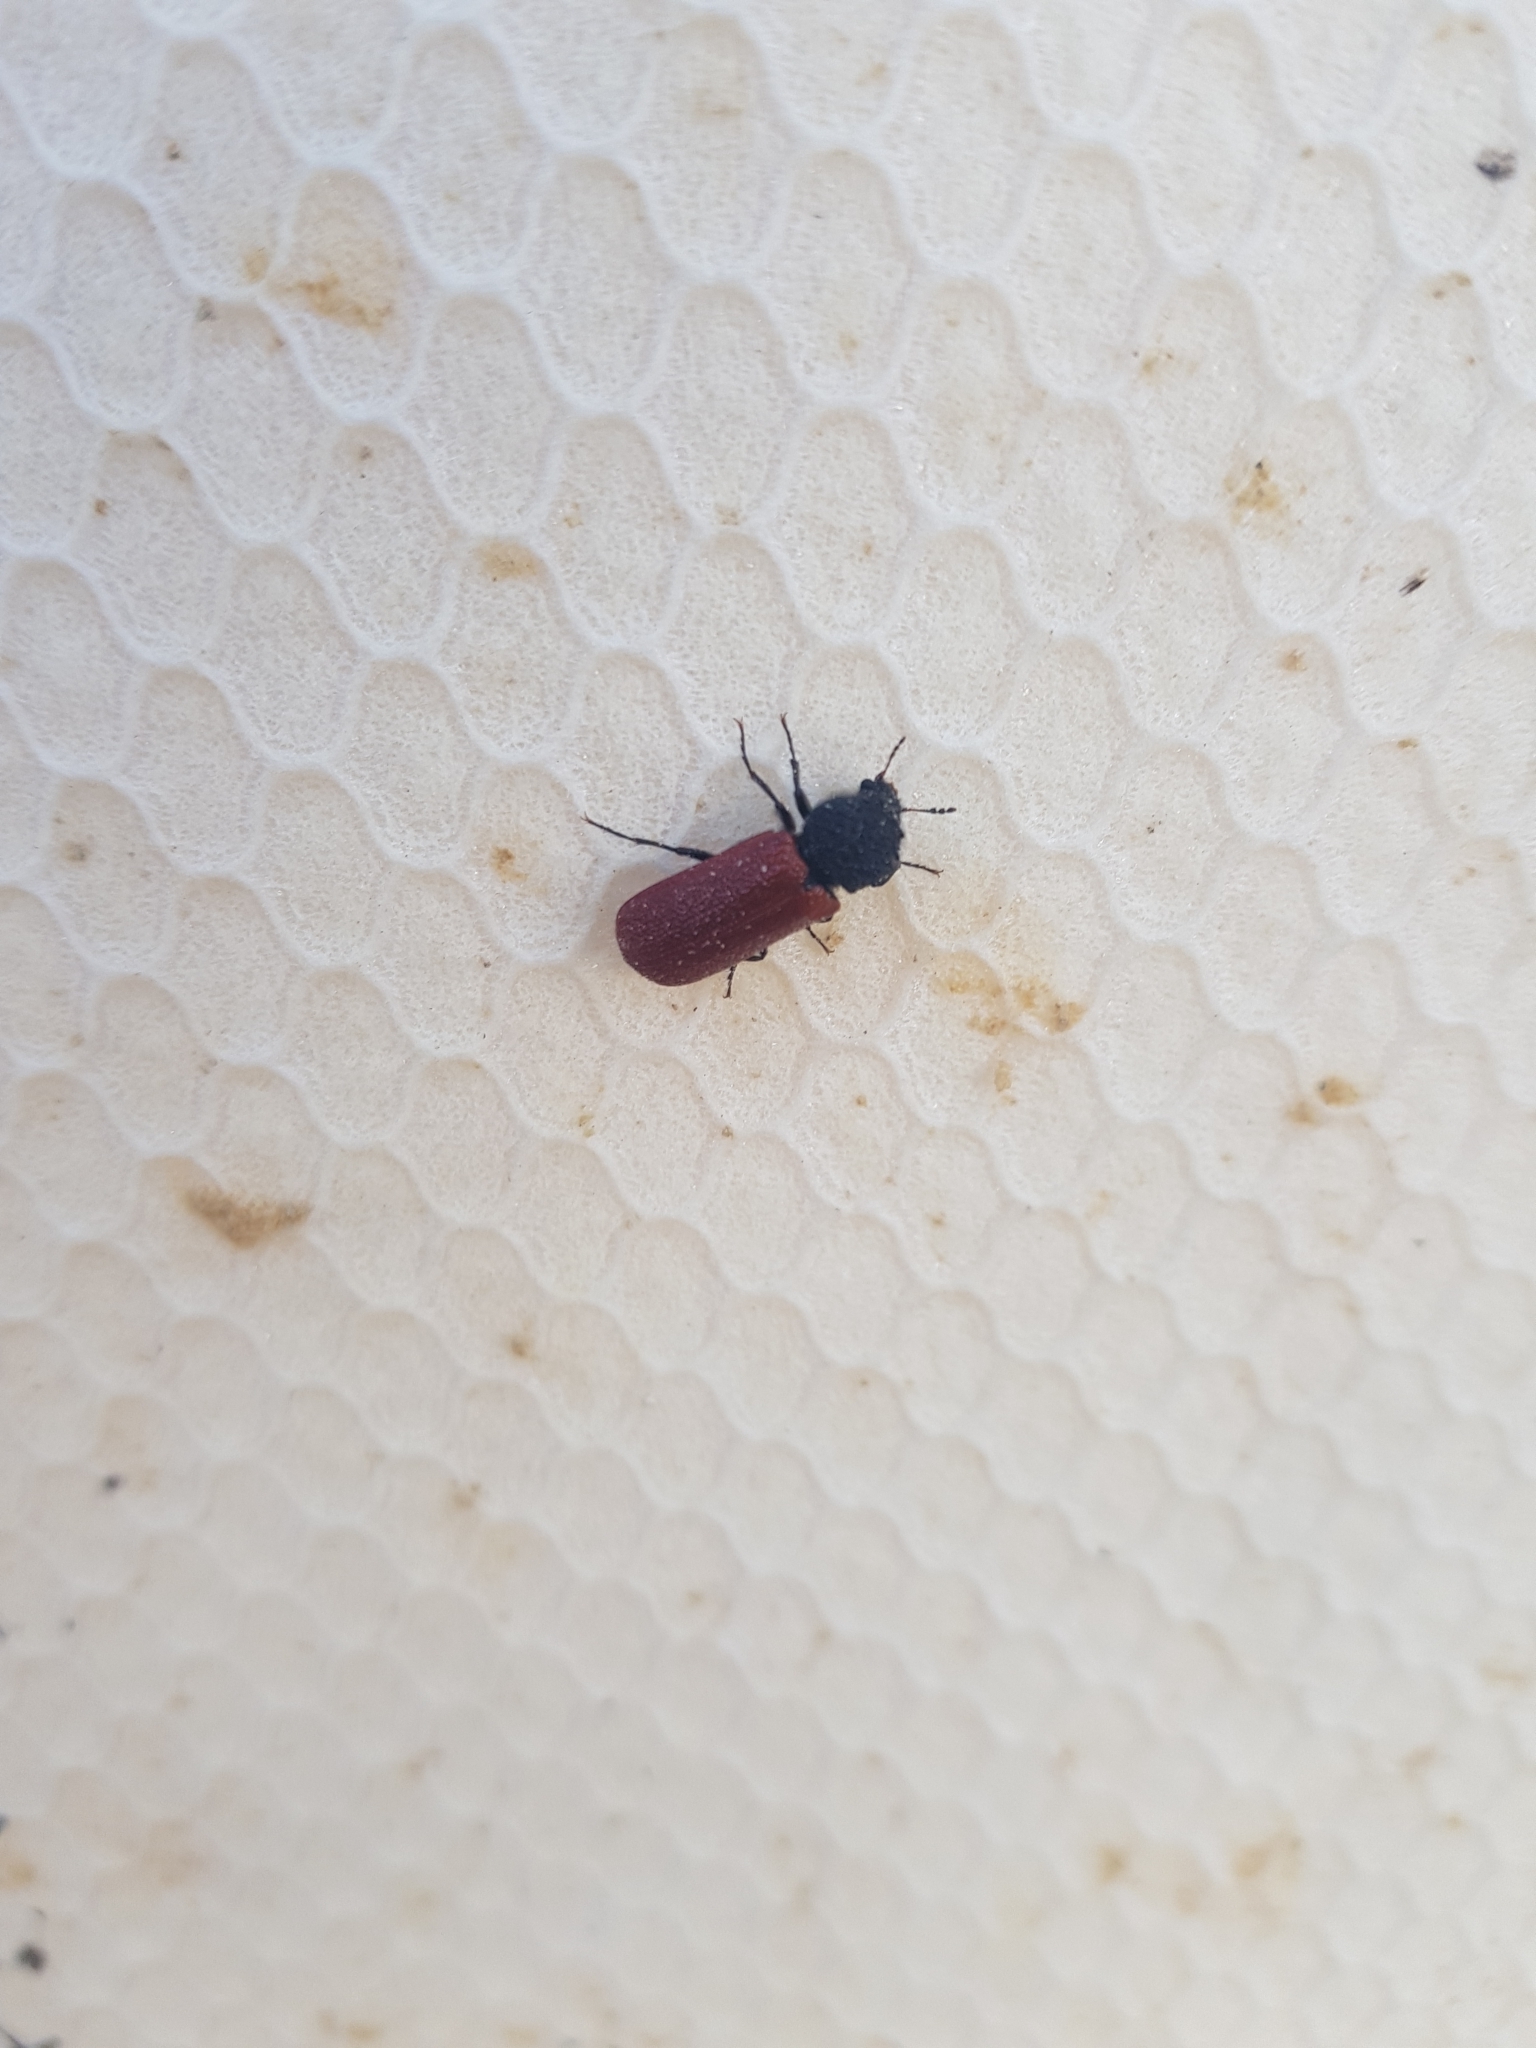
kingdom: Animalia
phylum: Arthropoda
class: Insecta
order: Coleoptera
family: Bostrichidae
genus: Bostrichus
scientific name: Bostrichus capucinus
